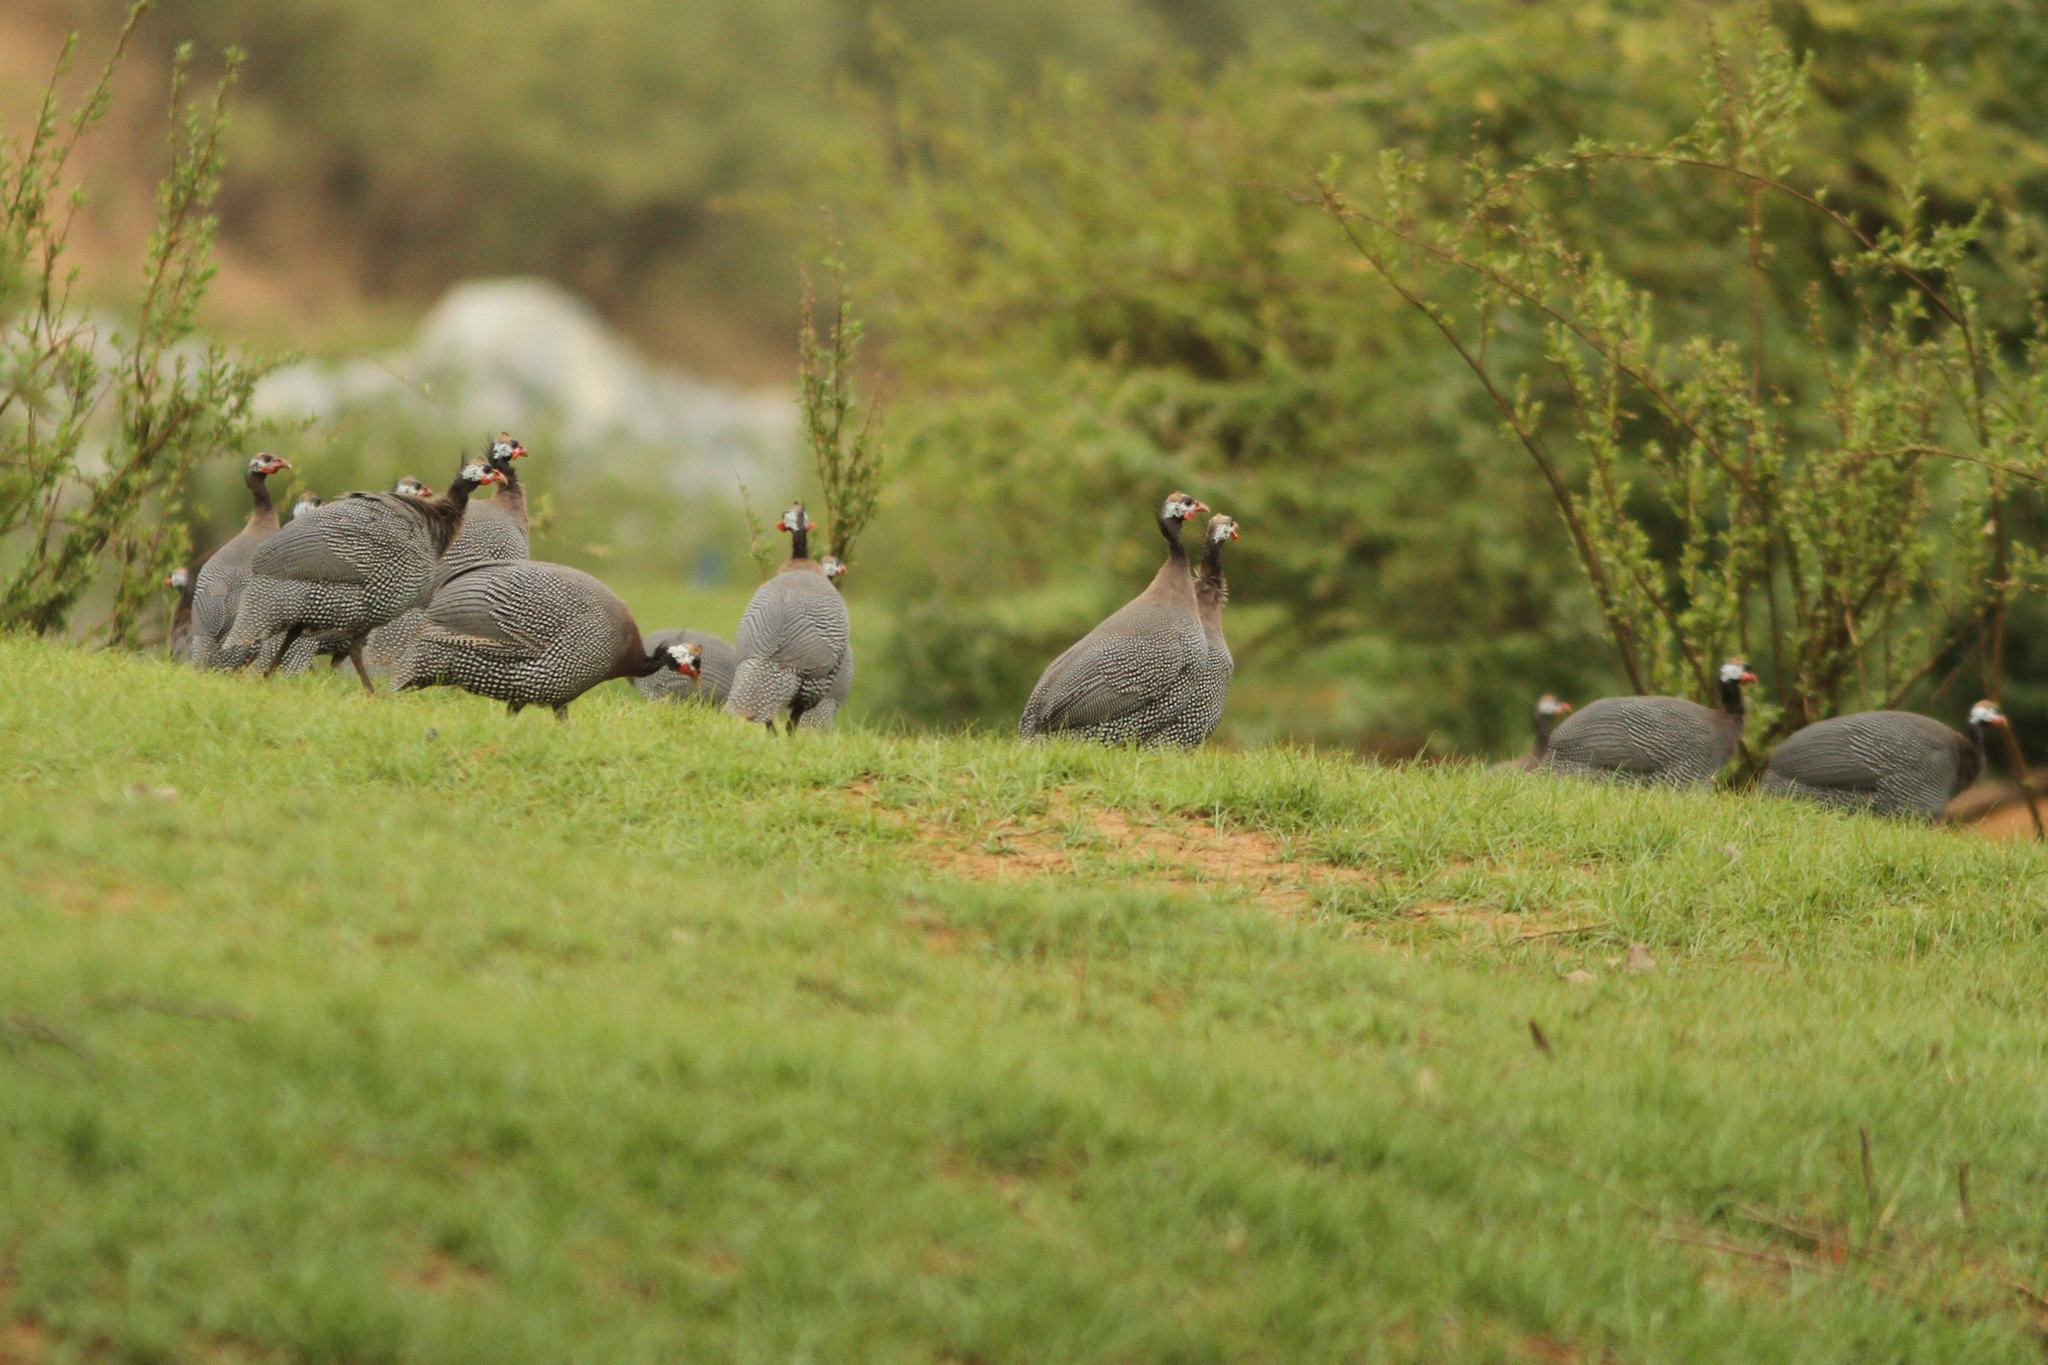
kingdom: Animalia
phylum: Chordata
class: Aves
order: Galliformes
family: Numididae
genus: Numida
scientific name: Numida meleagris
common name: Helmeted guineafowl
